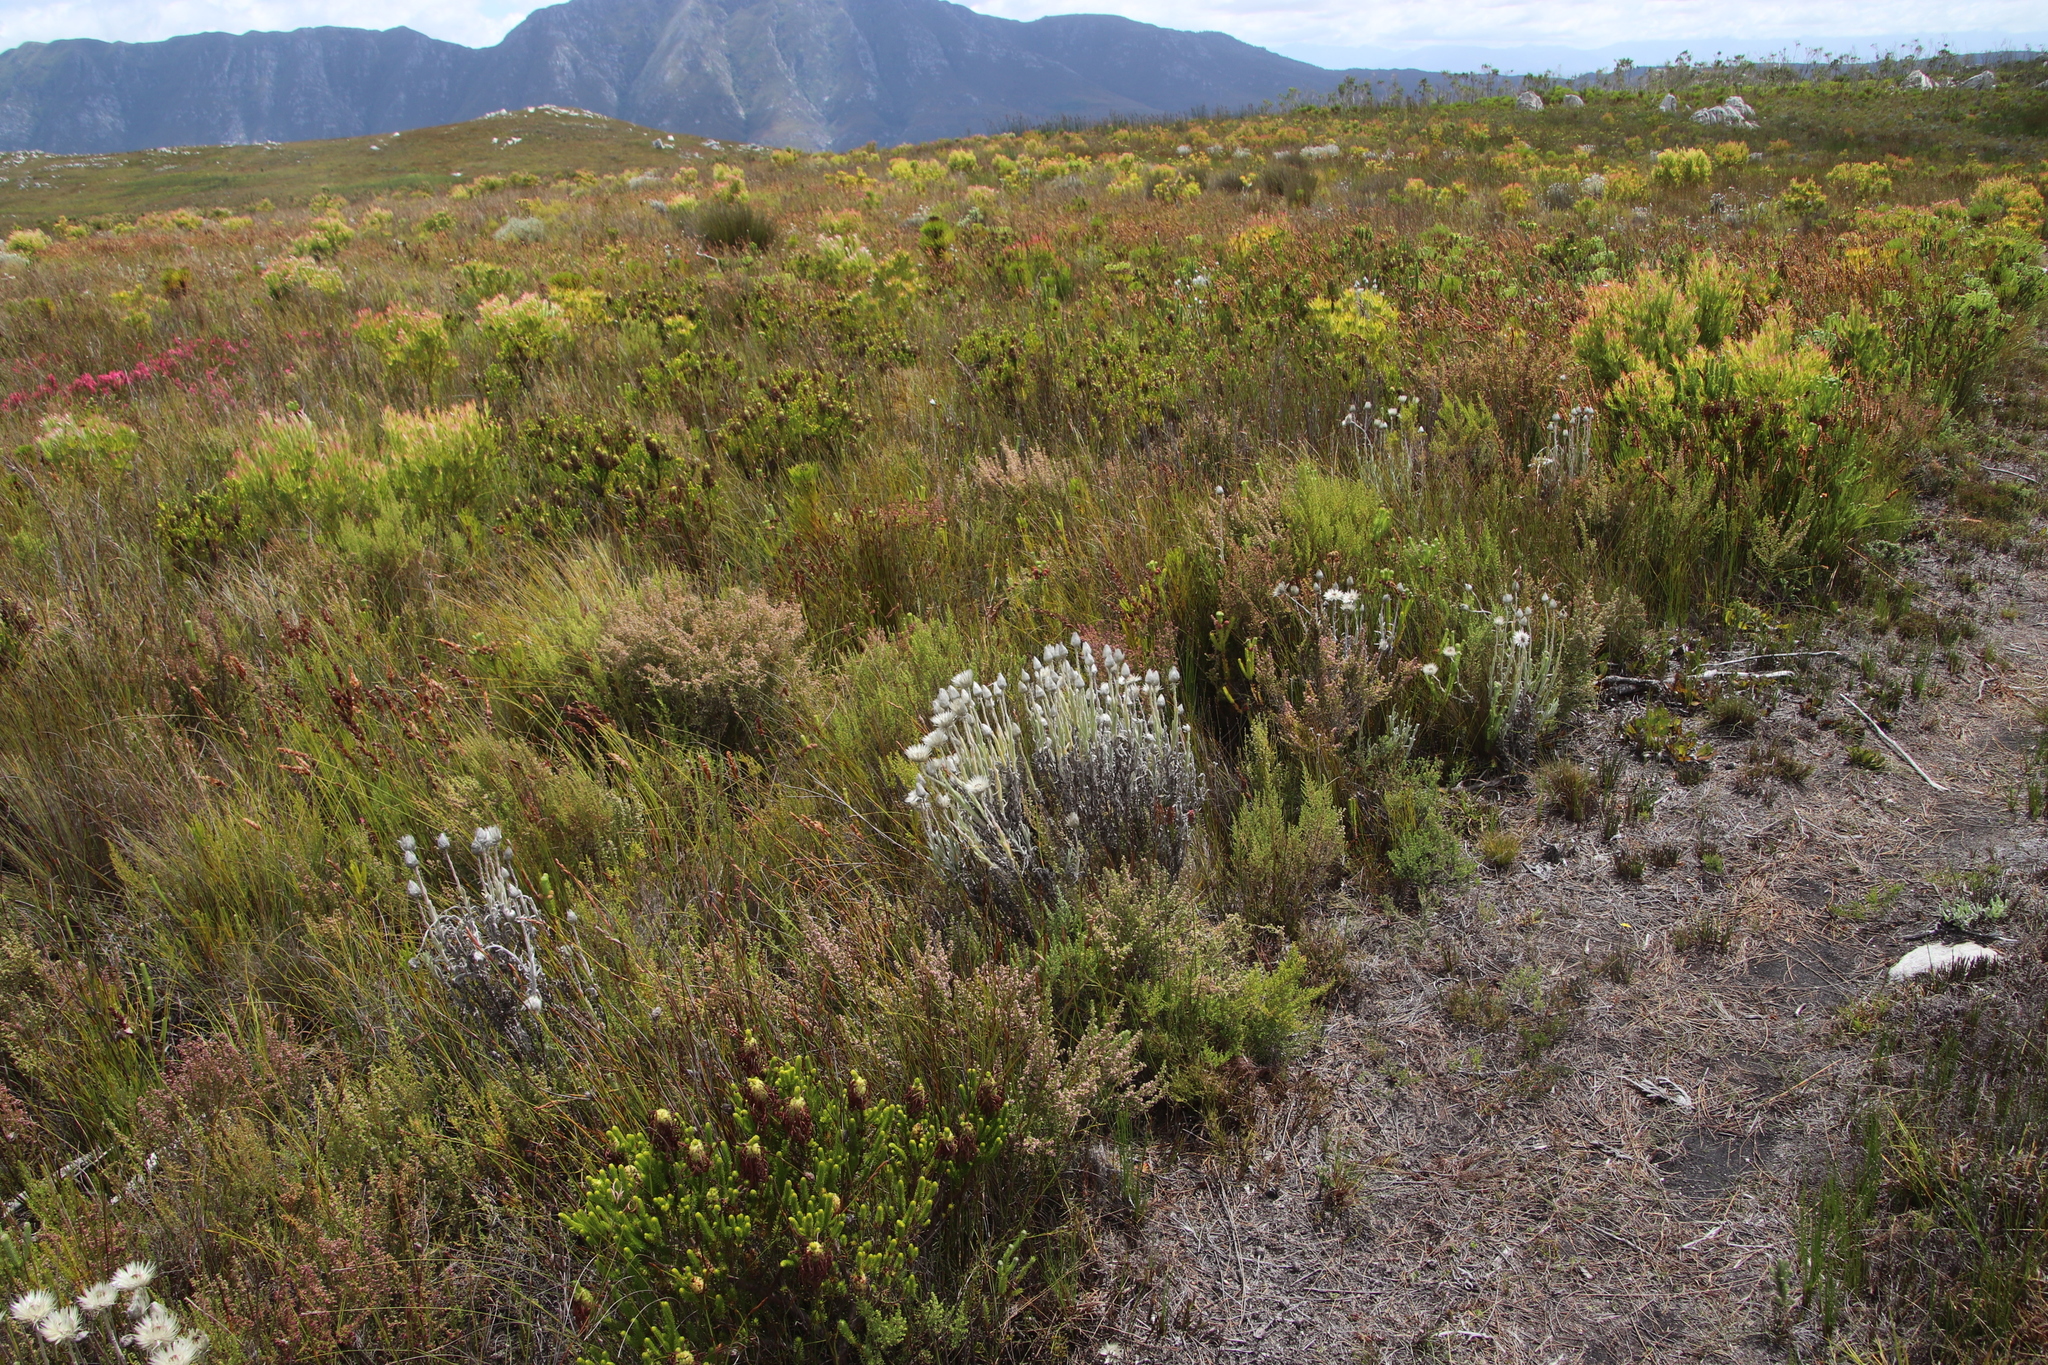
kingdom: Plantae
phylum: Tracheophyta
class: Magnoliopsida
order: Asterales
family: Asteraceae
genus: Syncarpha
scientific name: Syncarpha vestita
